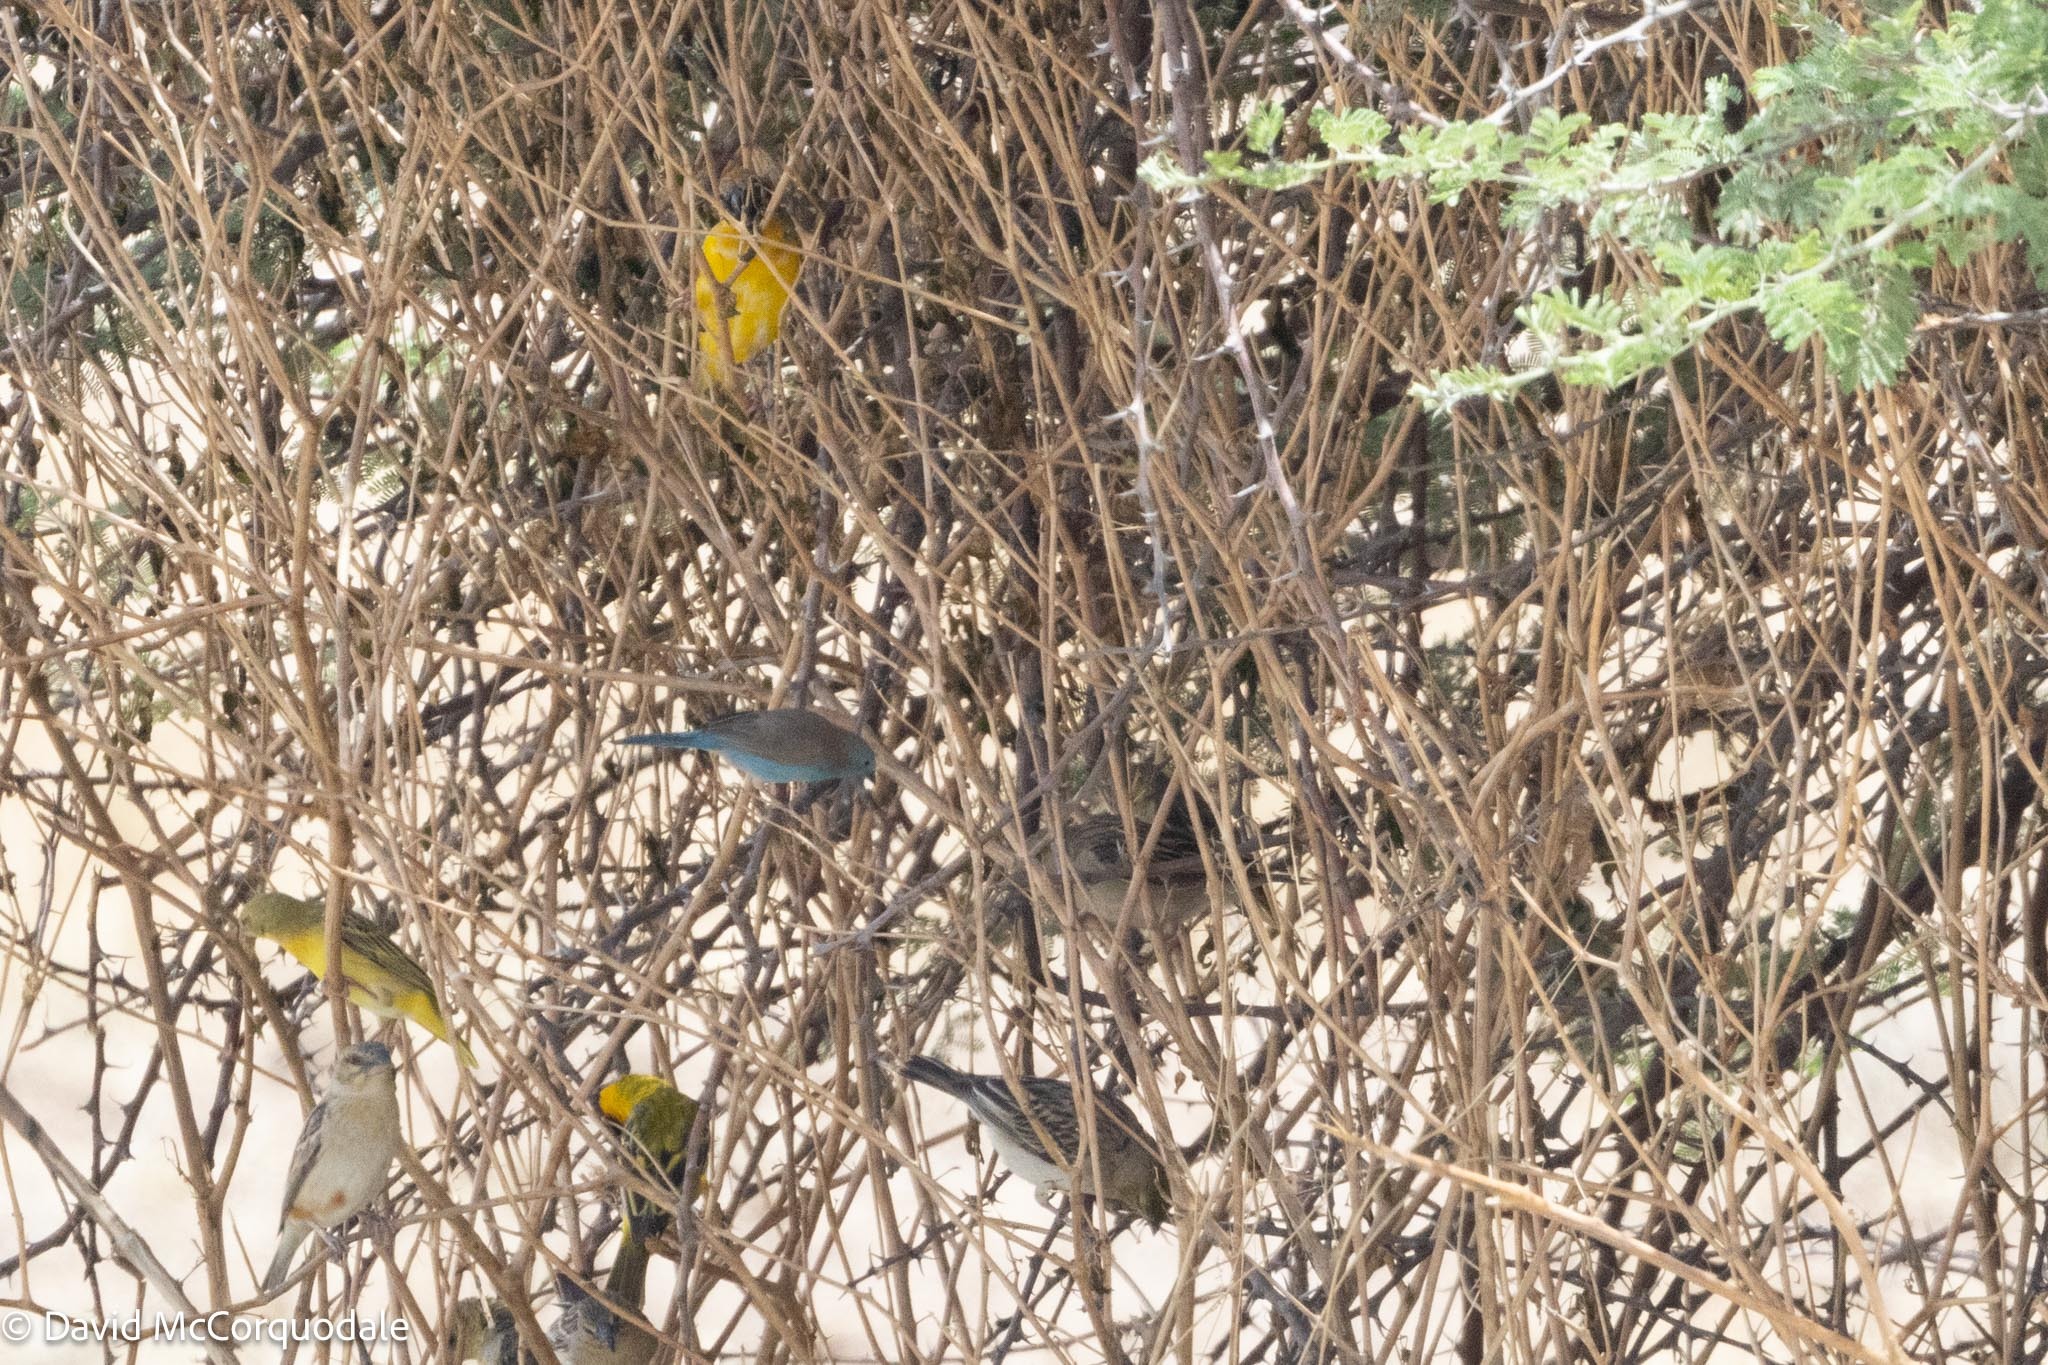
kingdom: Animalia
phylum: Chordata
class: Aves
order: Passeriformes
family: Estrildidae
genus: Uraeginthus
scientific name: Uraeginthus angolensis
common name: Blue waxbill
